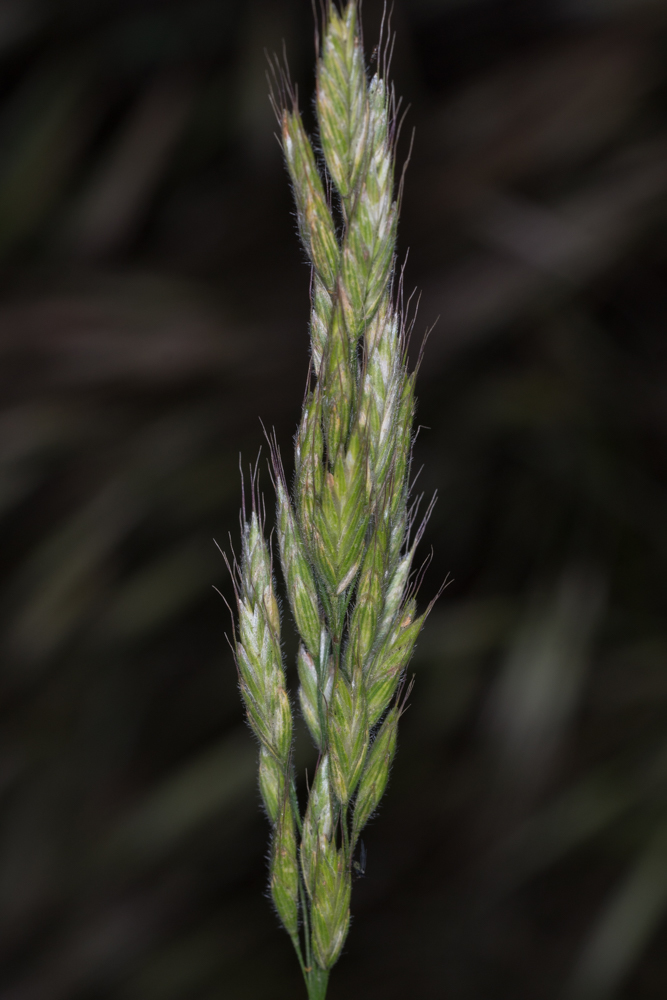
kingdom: Plantae
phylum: Tracheophyta
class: Liliopsida
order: Poales
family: Poaceae
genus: Bromus
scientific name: Bromus hordeaceus
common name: Soft brome
